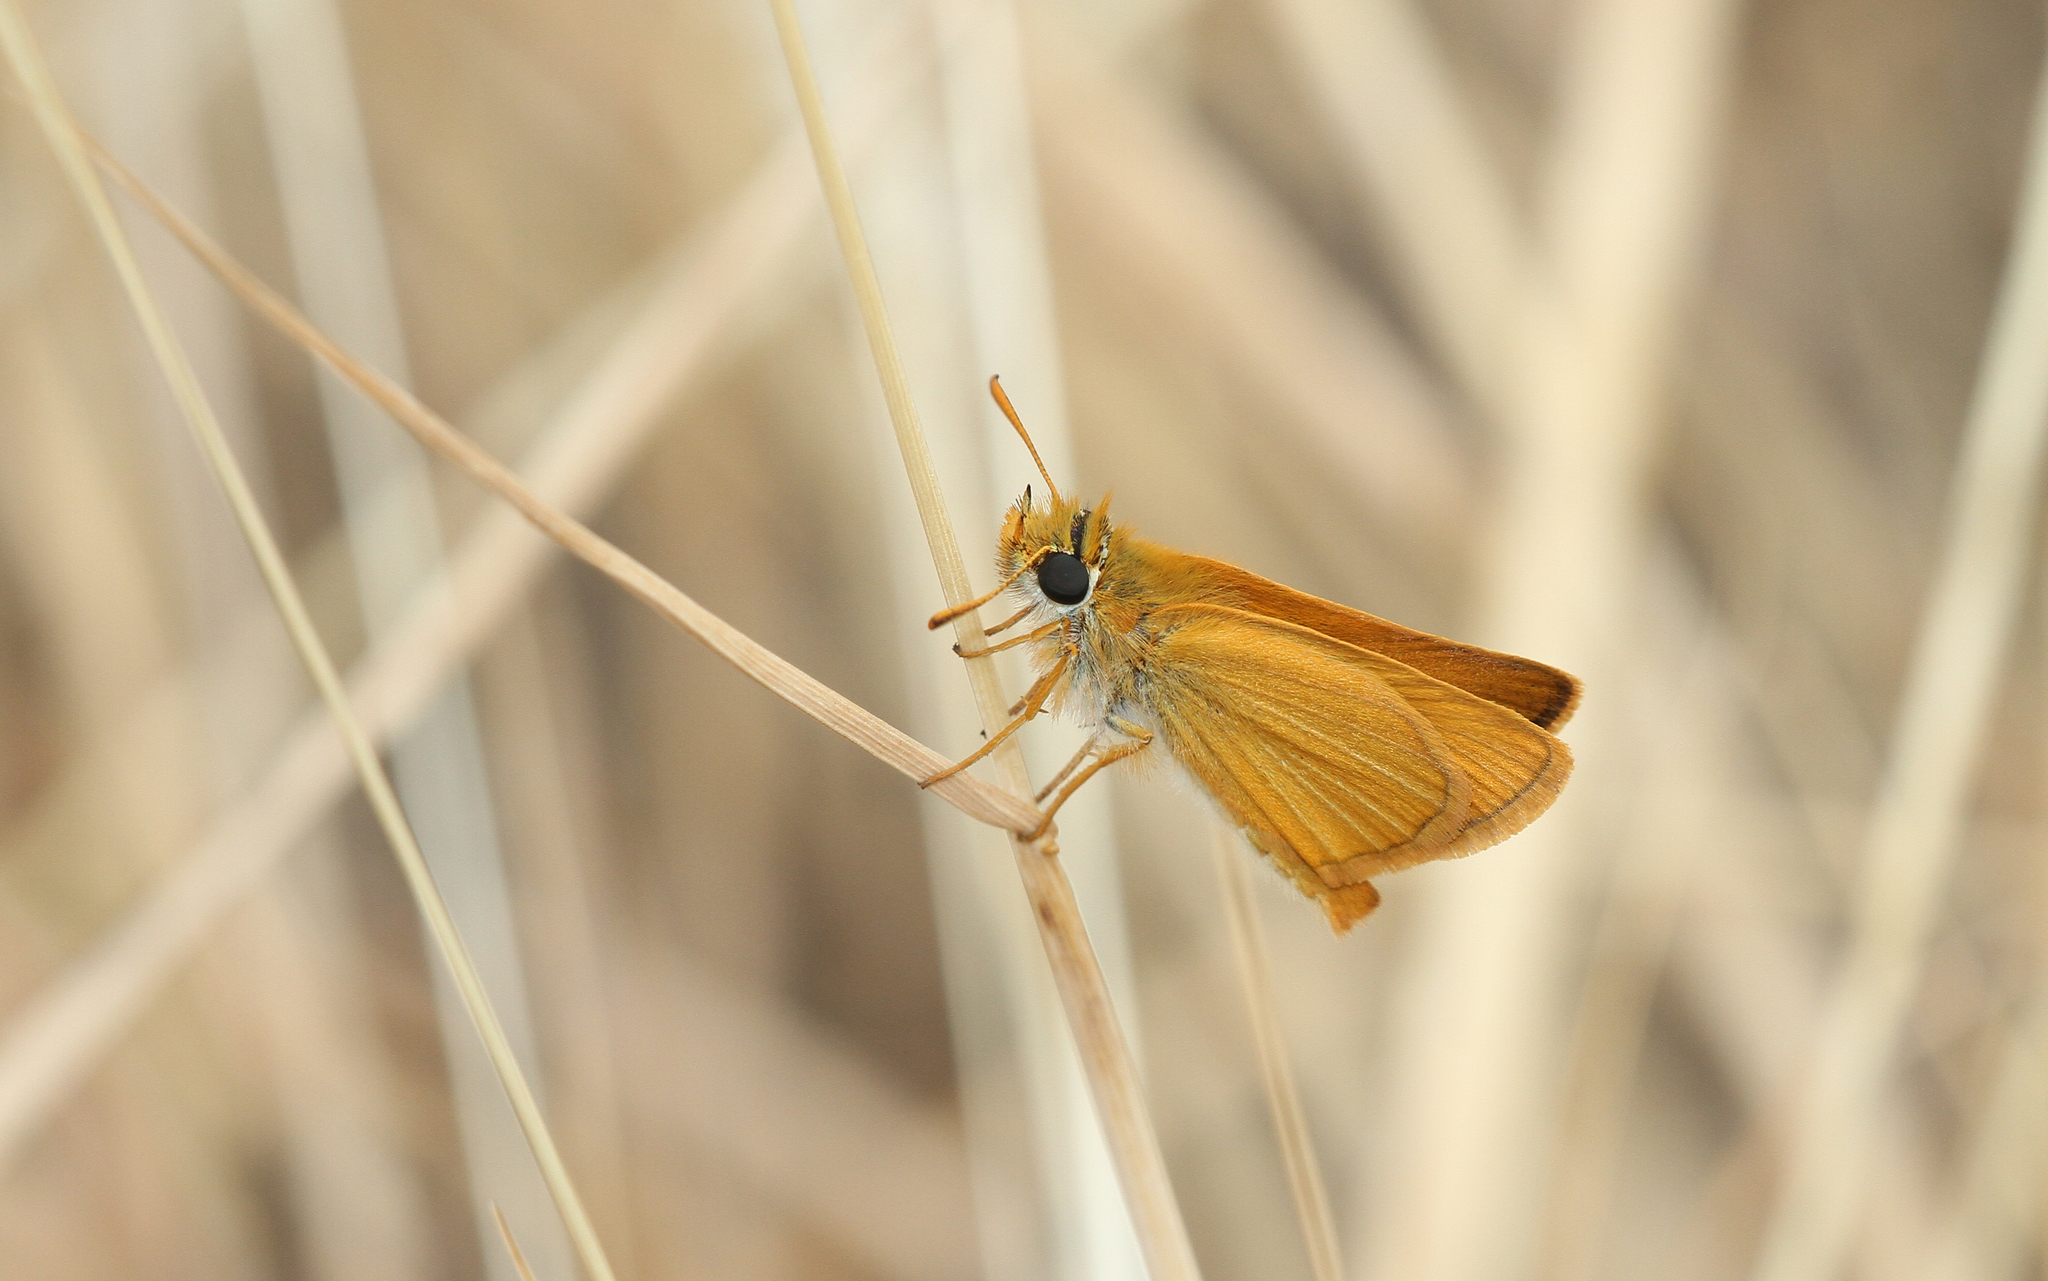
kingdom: Animalia
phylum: Arthropoda
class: Insecta
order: Lepidoptera
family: Hesperiidae
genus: Thymelicus
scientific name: Thymelicus acteon
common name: Lulworth skipper
